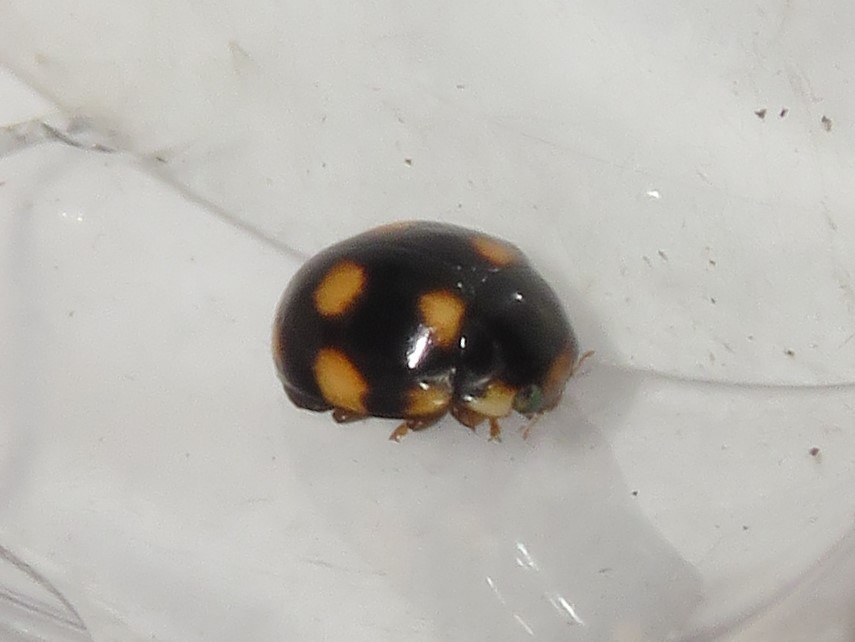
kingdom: Animalia
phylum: Arthropoda
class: Insecta
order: Coleoptera
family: Coccinellidae
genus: Brachiacantha
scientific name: Brachiacantha ursina
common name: Ursine spurleg lady beetle
